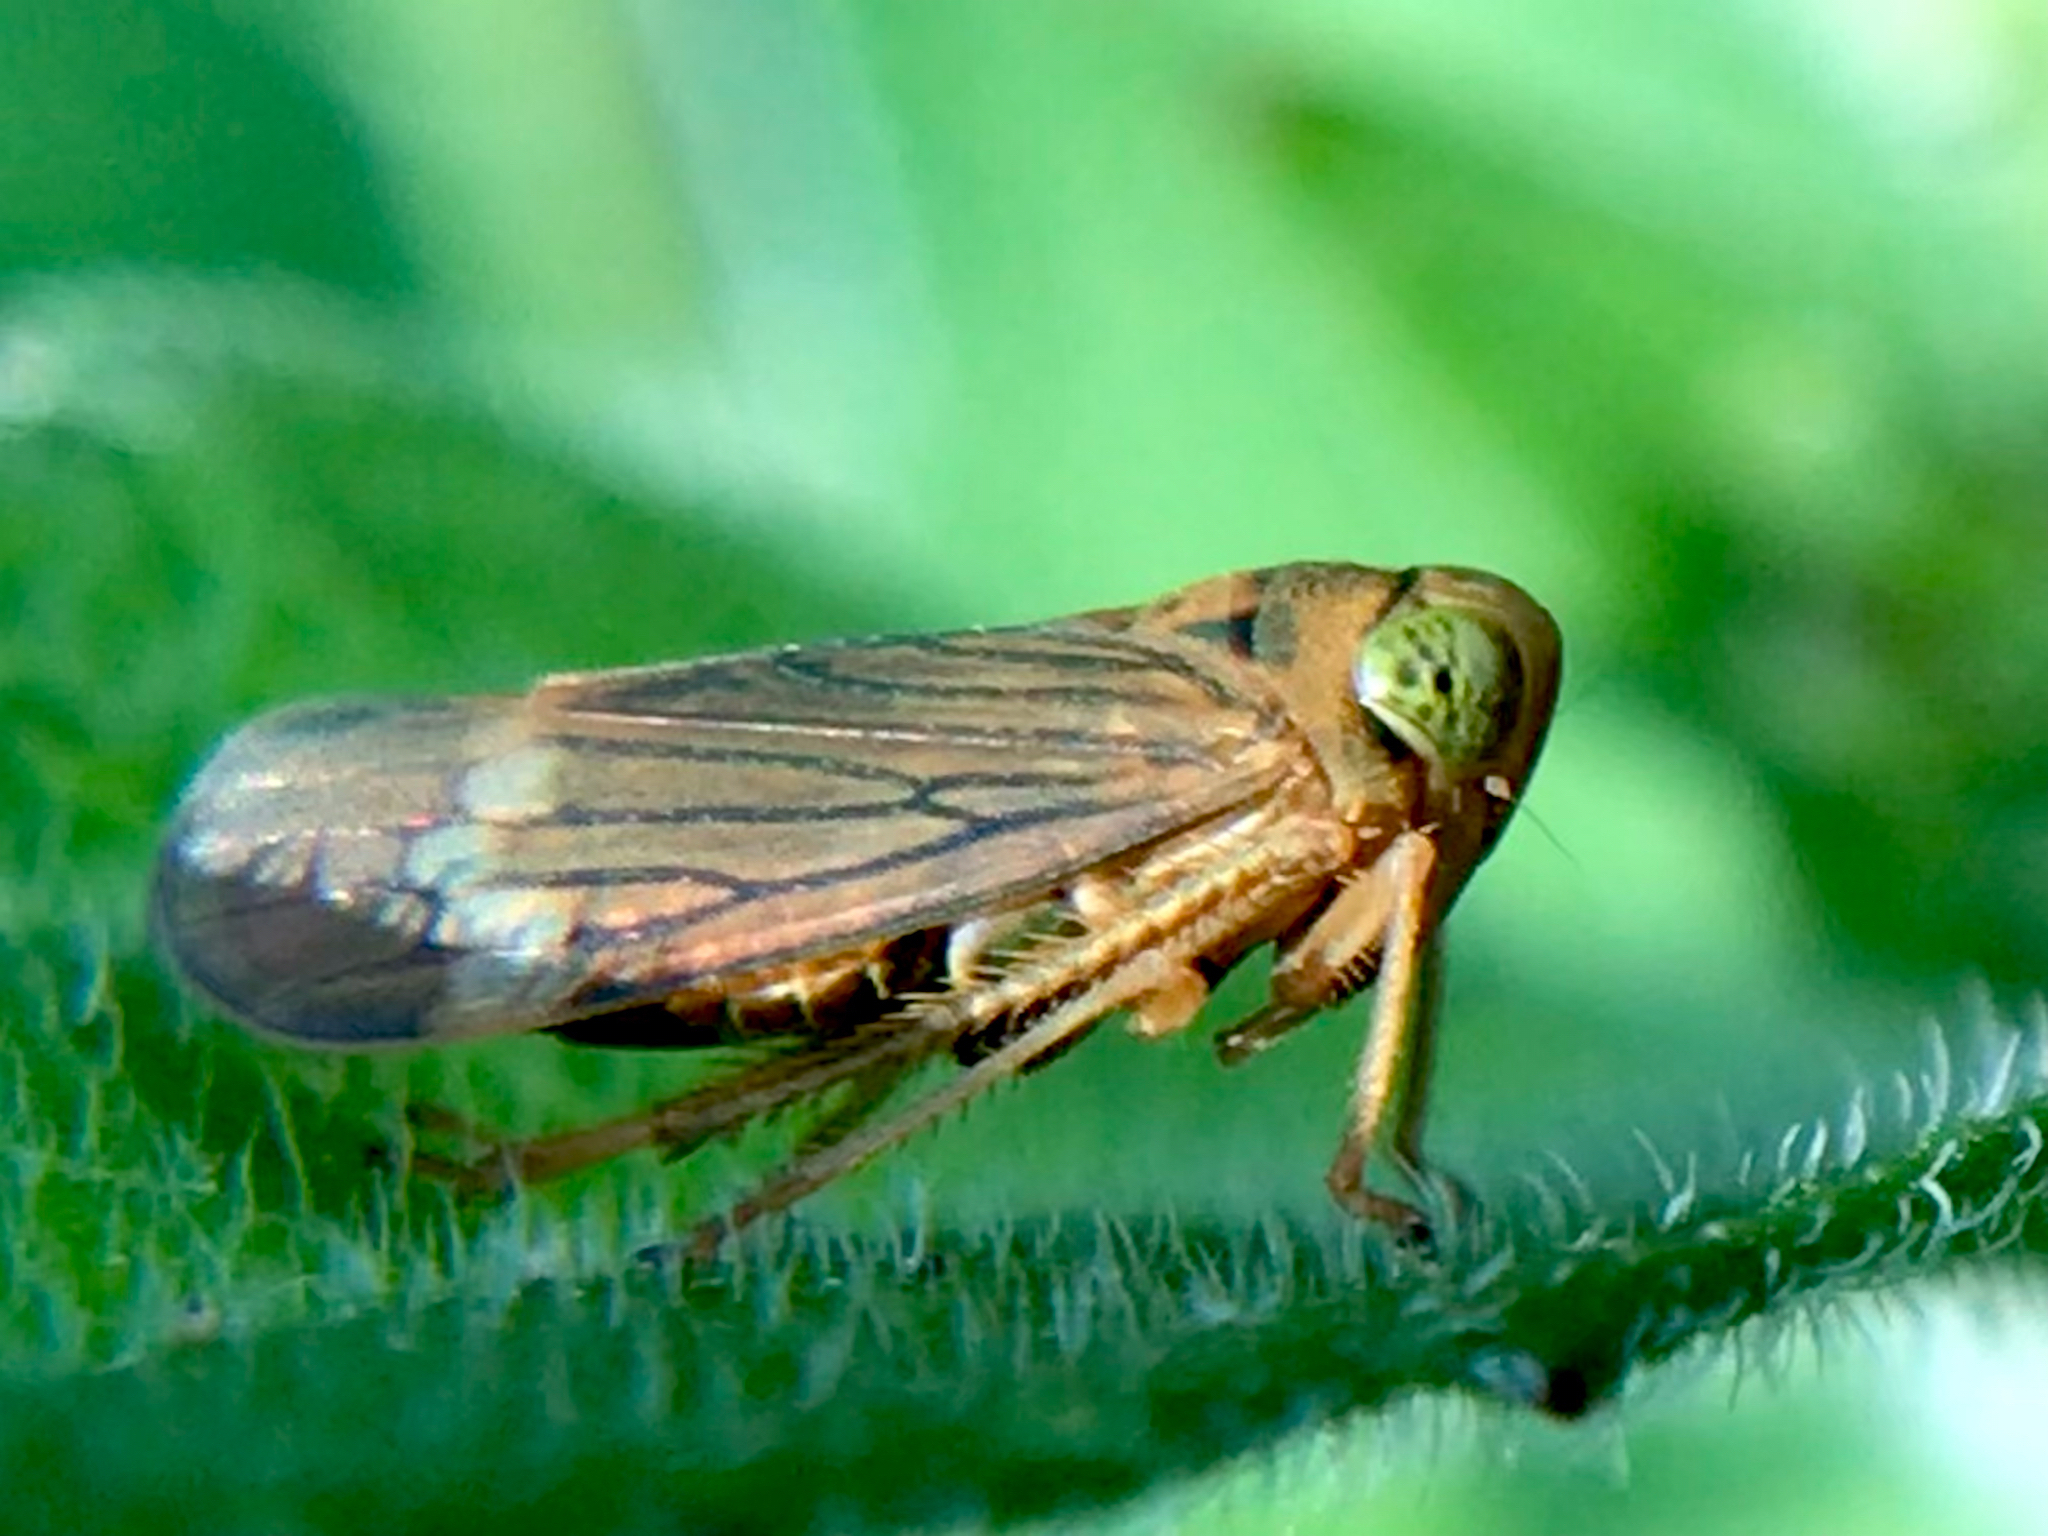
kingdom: Animalia
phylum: Arthropoda
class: Insecta
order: Hemiptera
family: Cicadellidae
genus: Jikradia
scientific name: Jikradia olitoria
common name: Coppery leafhopper
